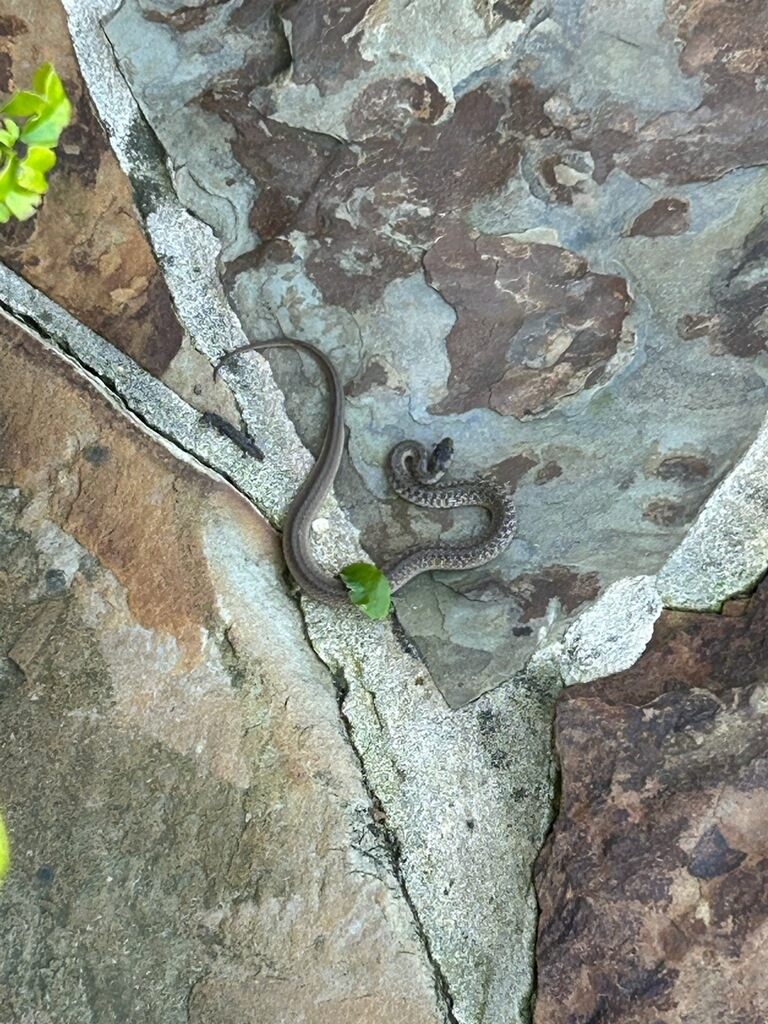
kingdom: Animalia
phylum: Chordata
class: Squamata
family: Colubridae
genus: Storeria
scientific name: Storeria dekayi
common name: (dekay’s) brown snake
